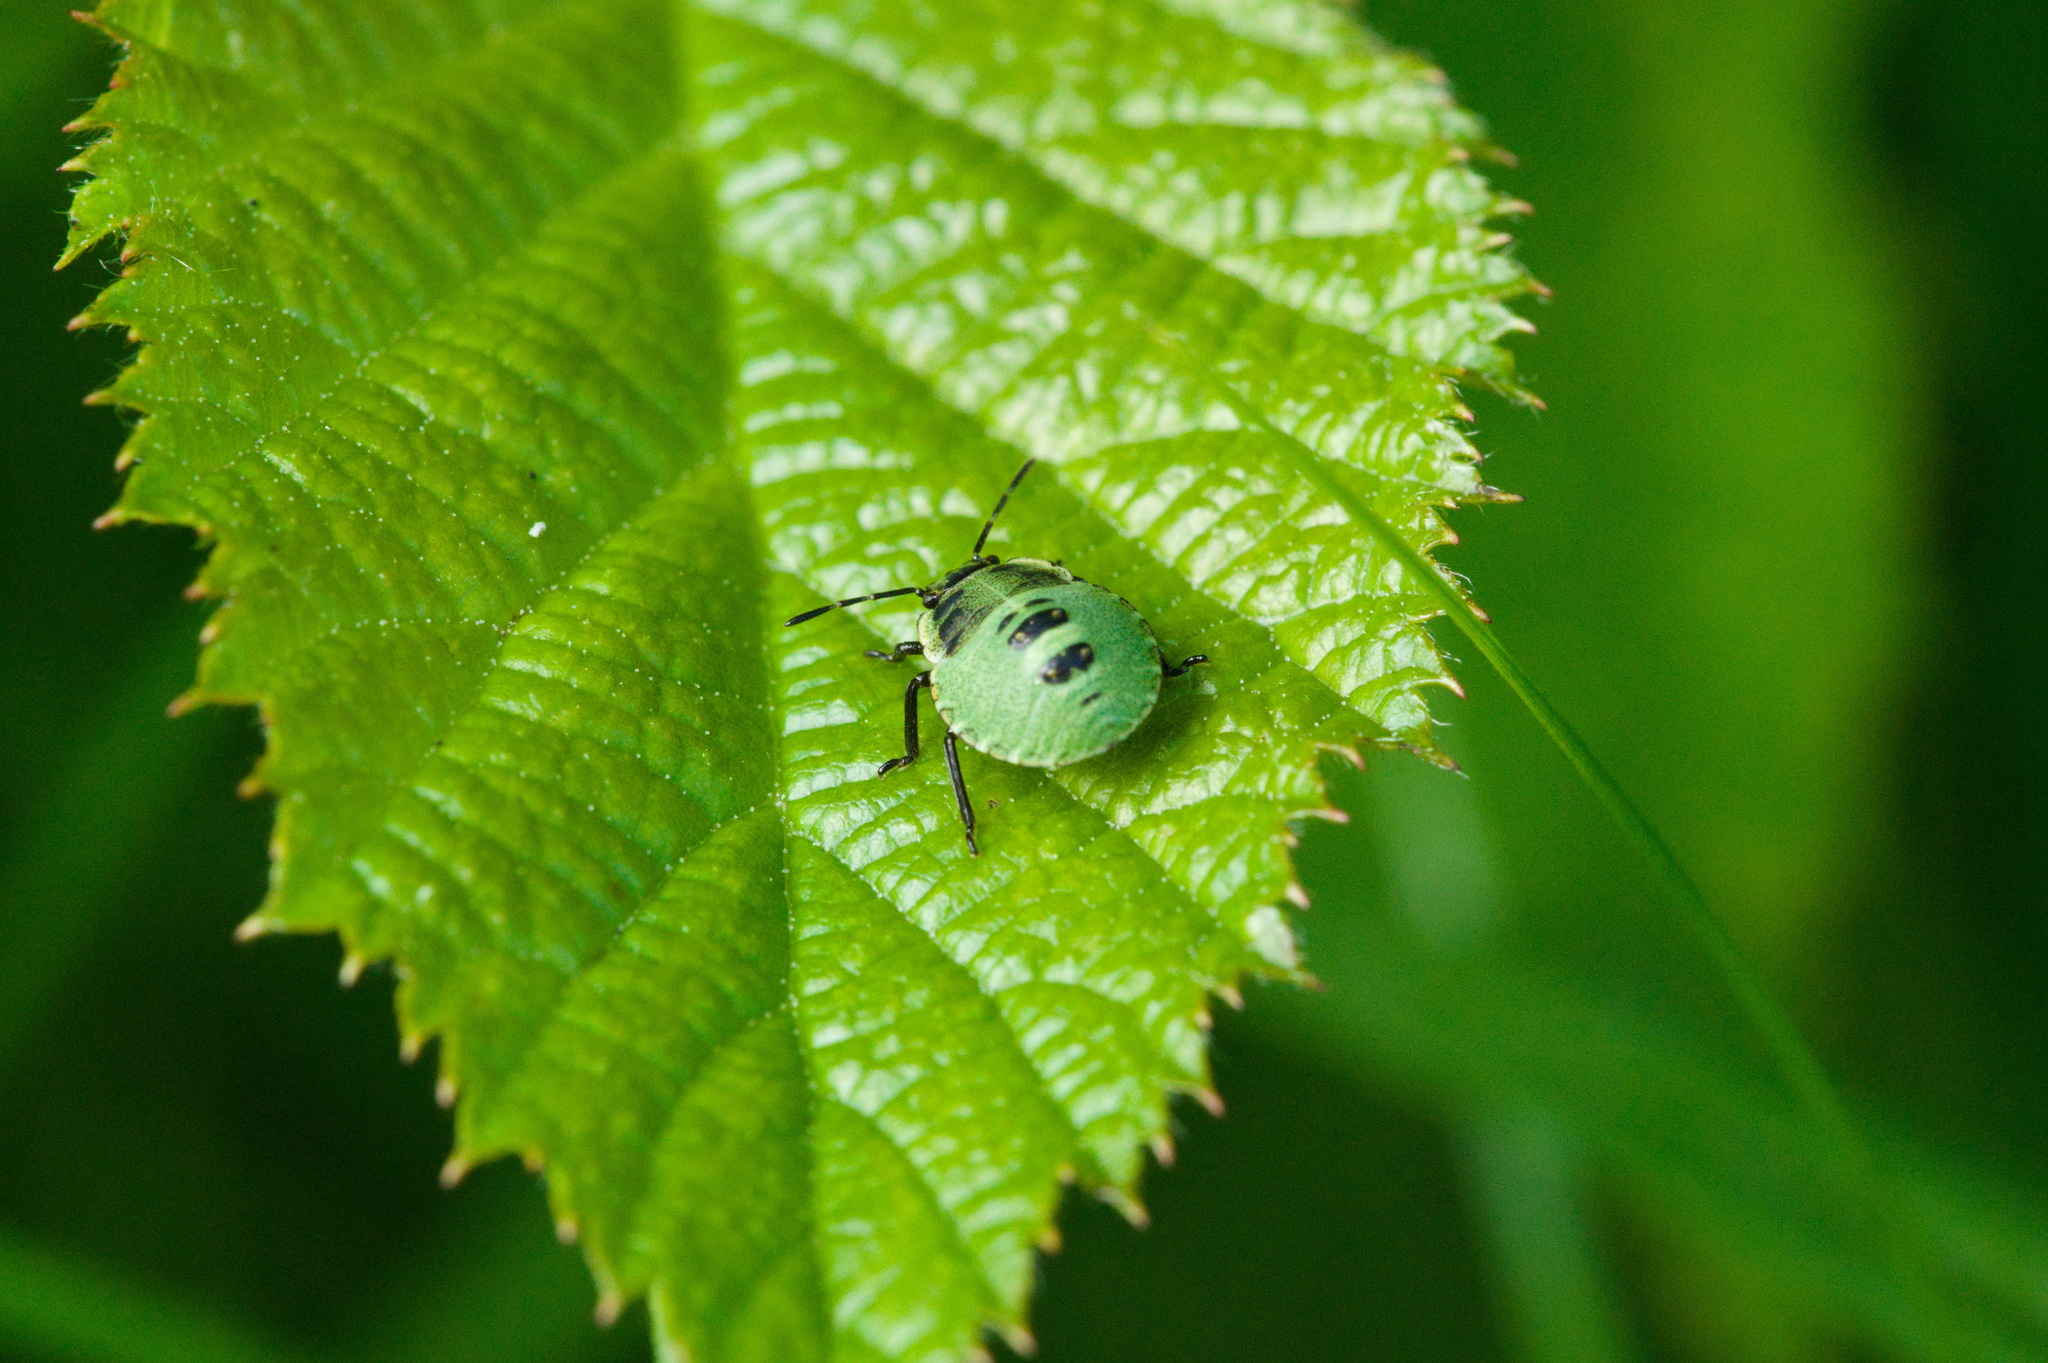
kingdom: Animalia
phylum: Arthropoda
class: Insecta
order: Hemiptera
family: Pentatomidae
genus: Palomena
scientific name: Palomena prasina
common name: Green shieldbug
